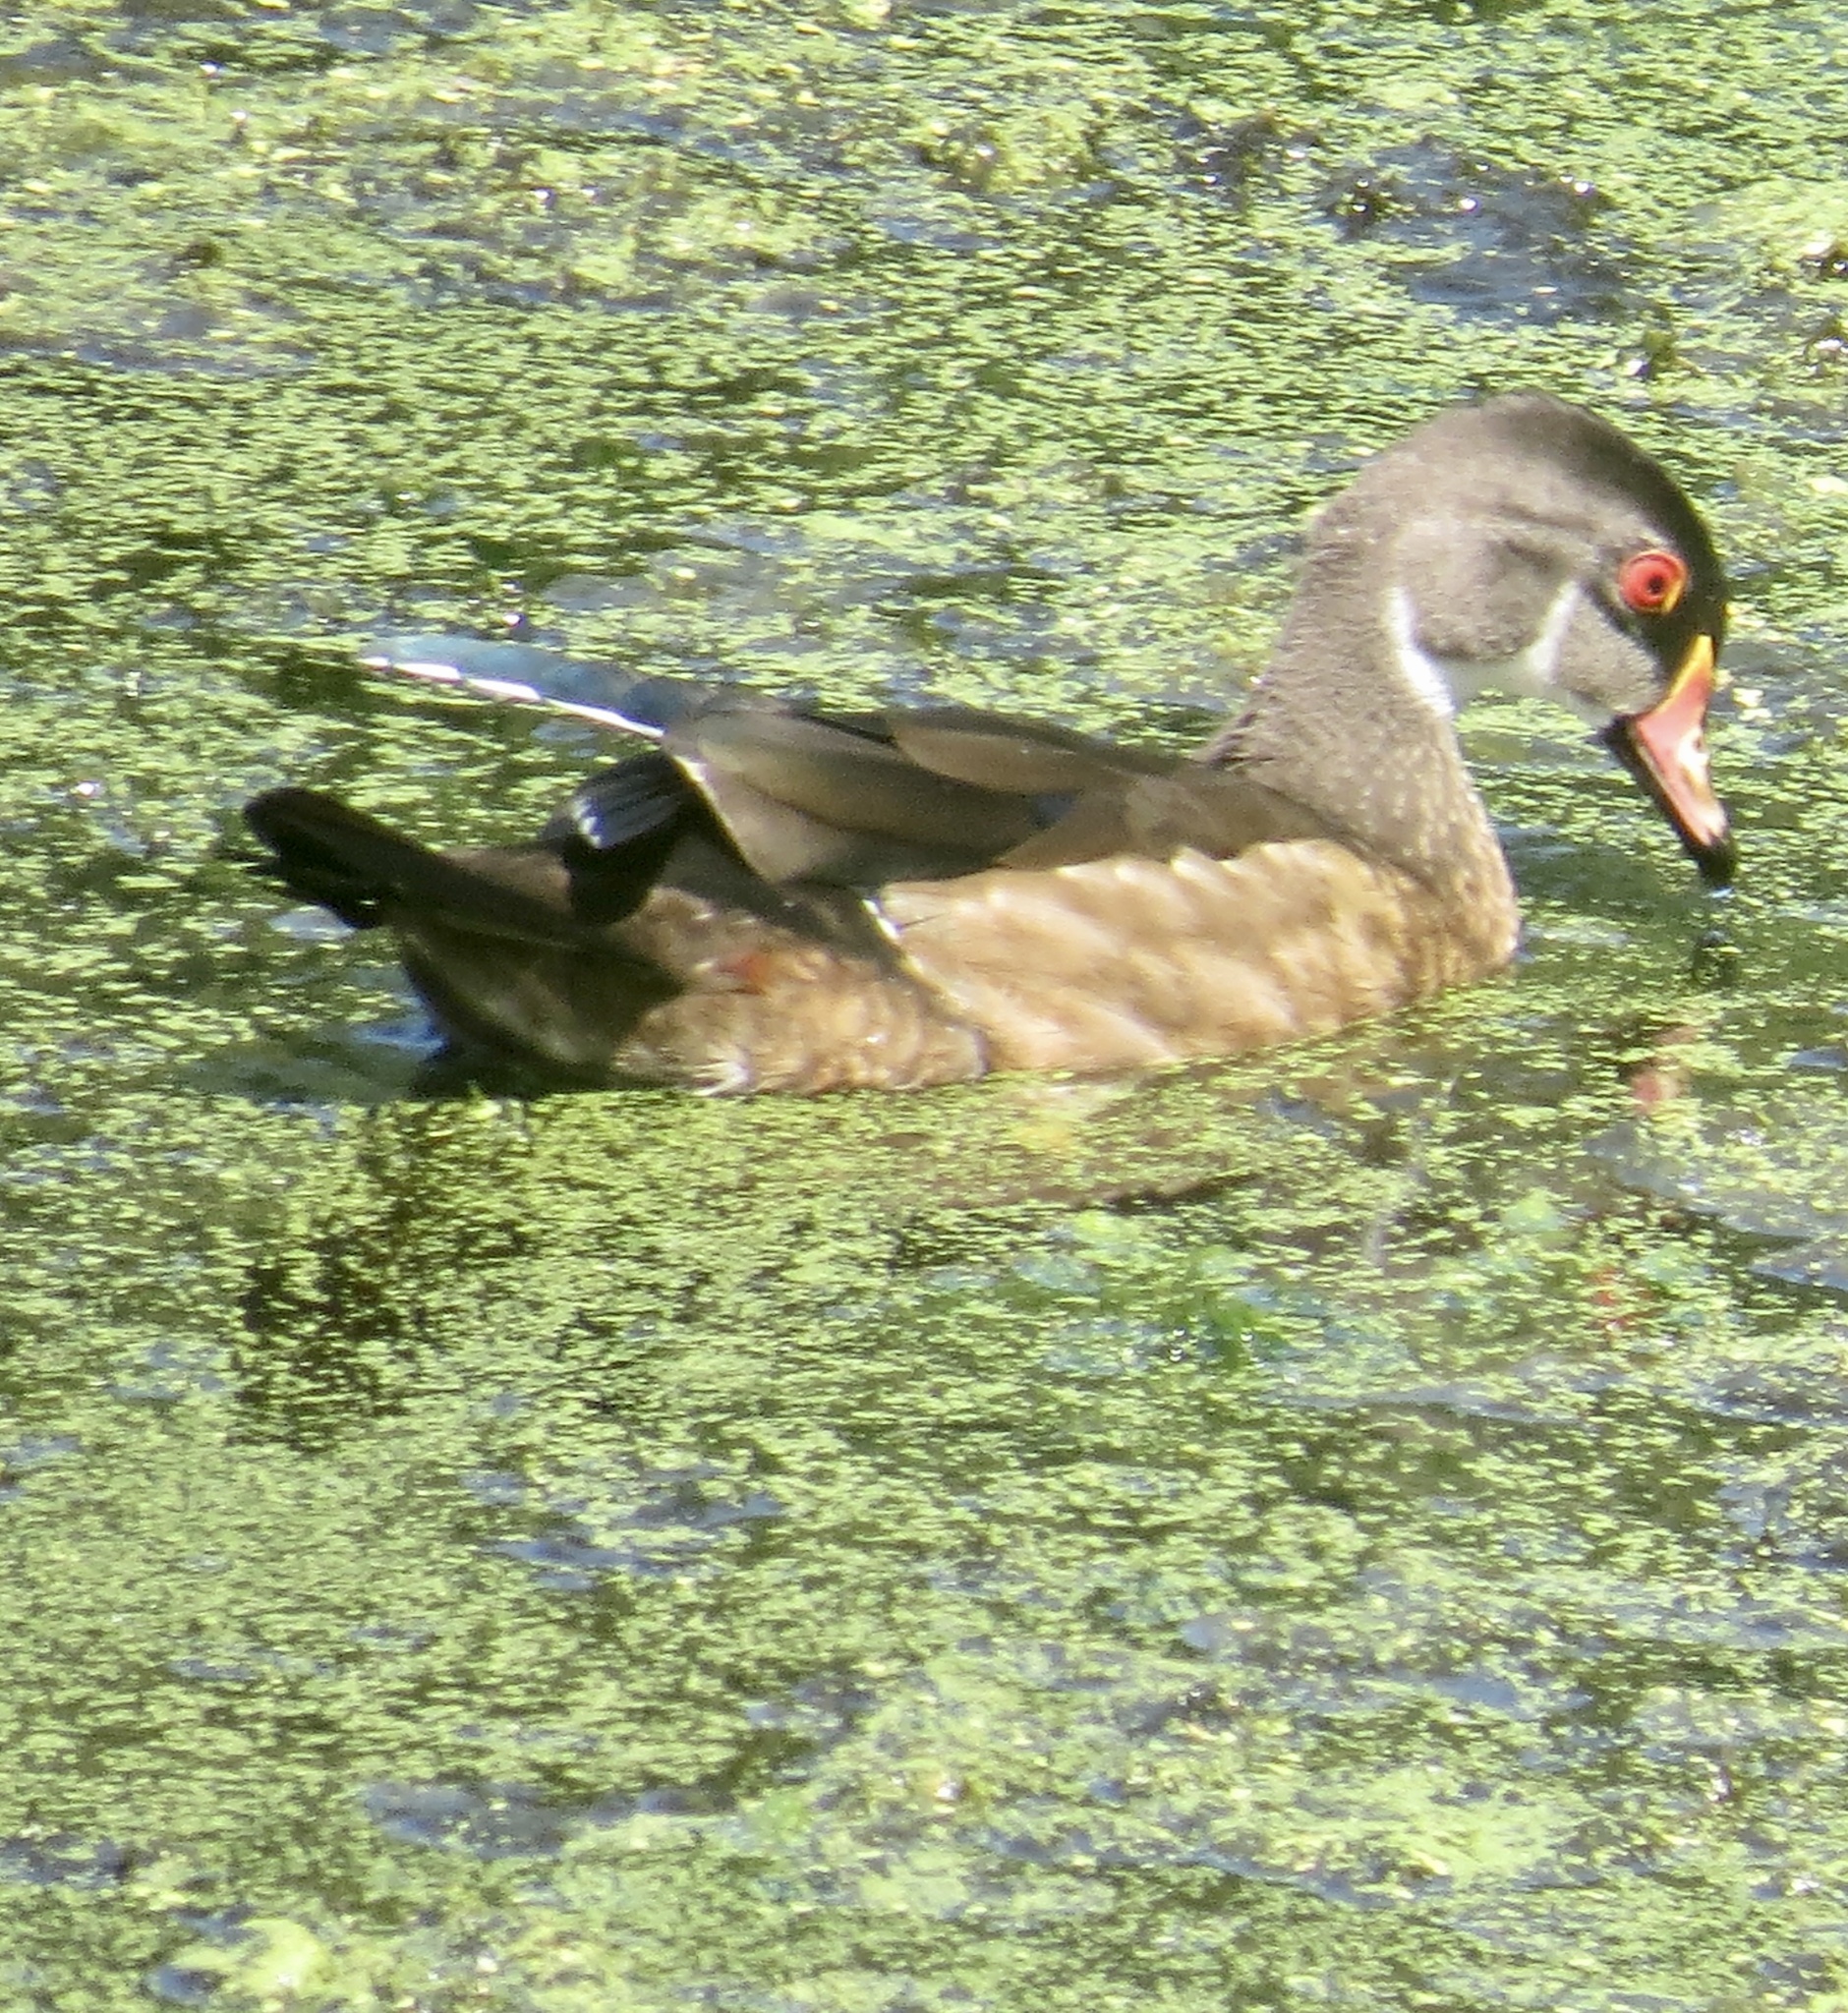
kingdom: Animalia
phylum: Chordata
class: Aves
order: Anseriformes
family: Anatidae
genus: Aix
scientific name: Aix sponsa
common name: Wood duck
